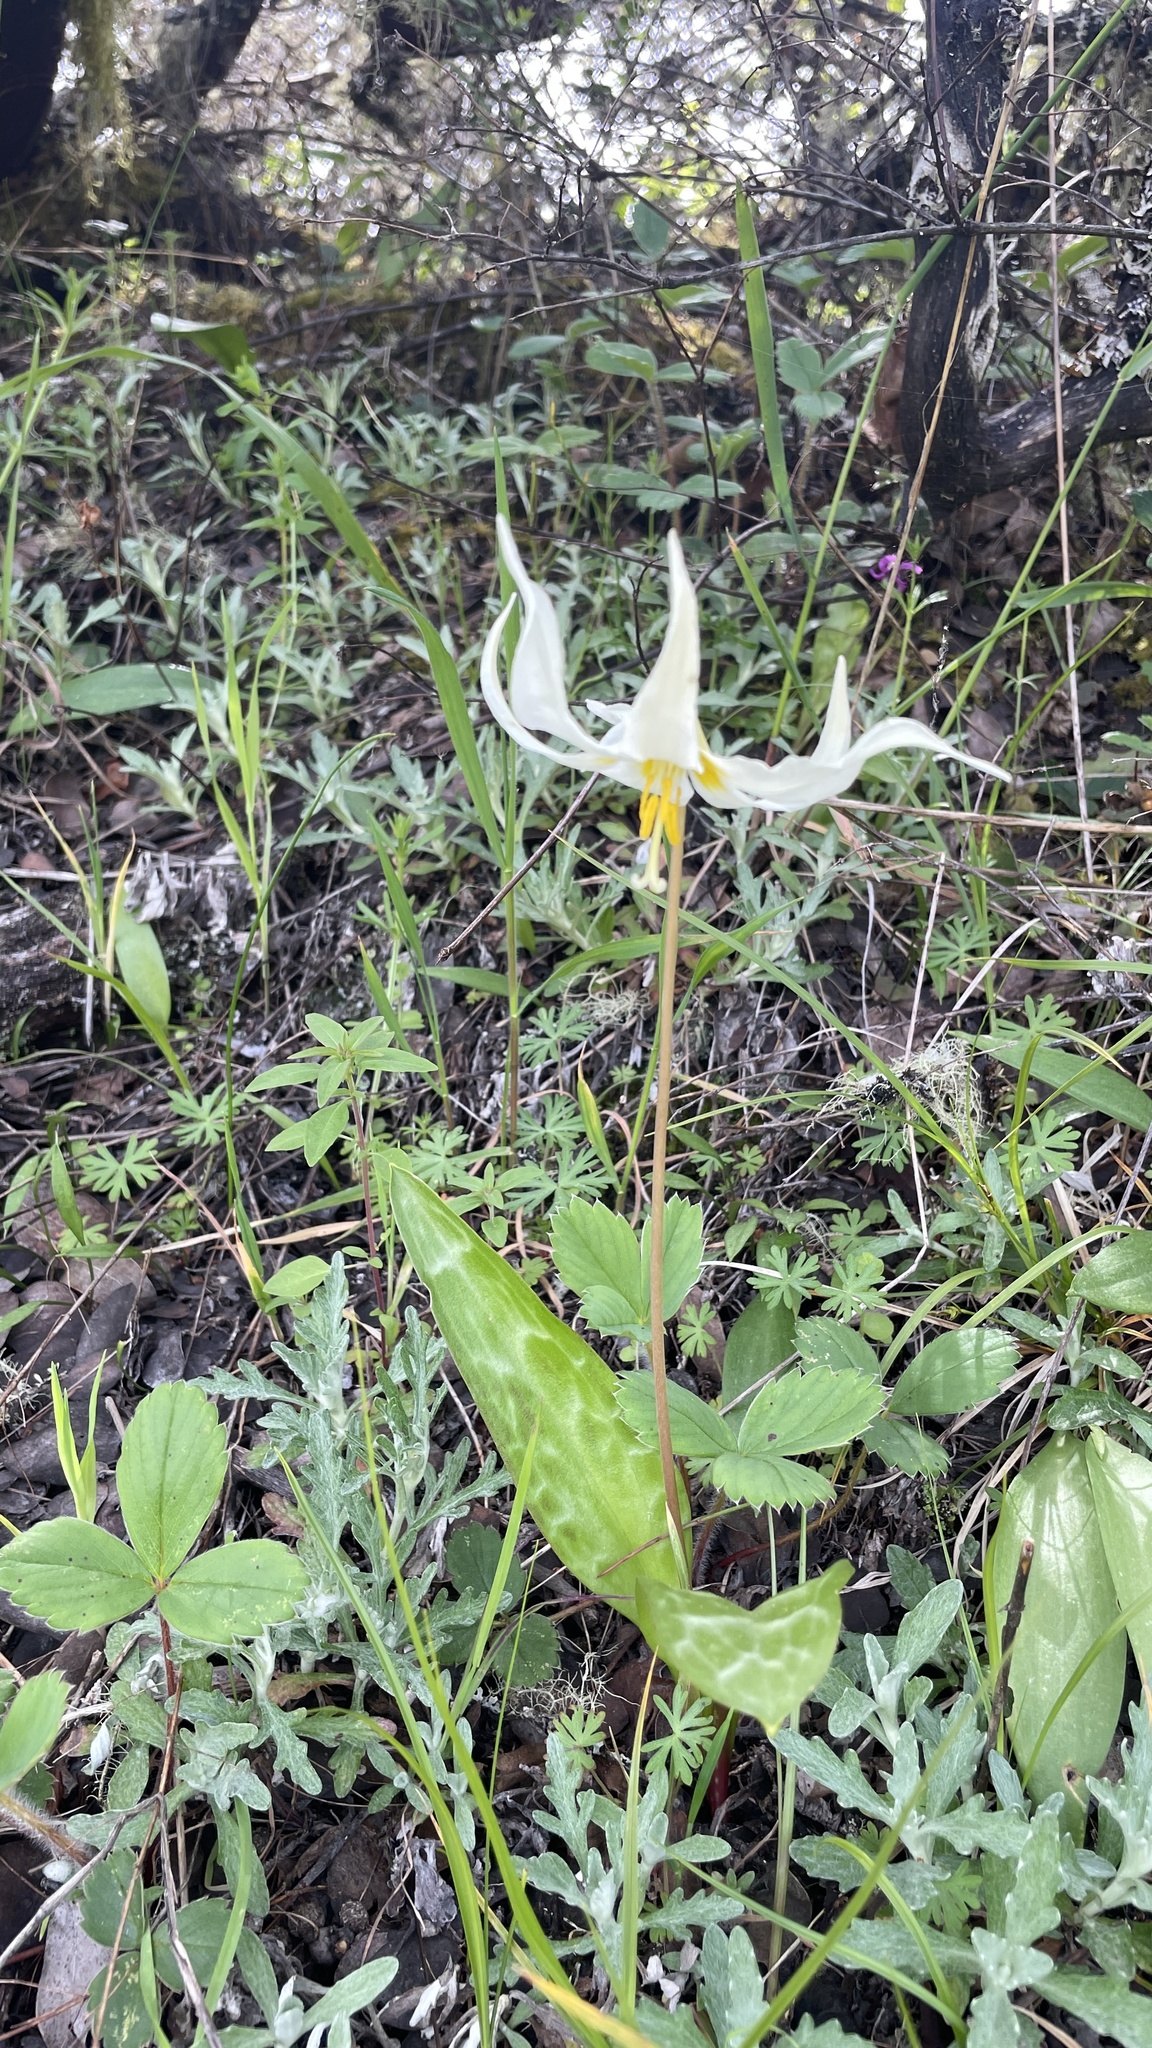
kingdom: Plantae
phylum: Tracheophyta
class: Liliopsida
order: Liliales
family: Liliaceae
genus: Erythronium
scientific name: Erythronium oregonum
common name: Giant adder's-tongue
